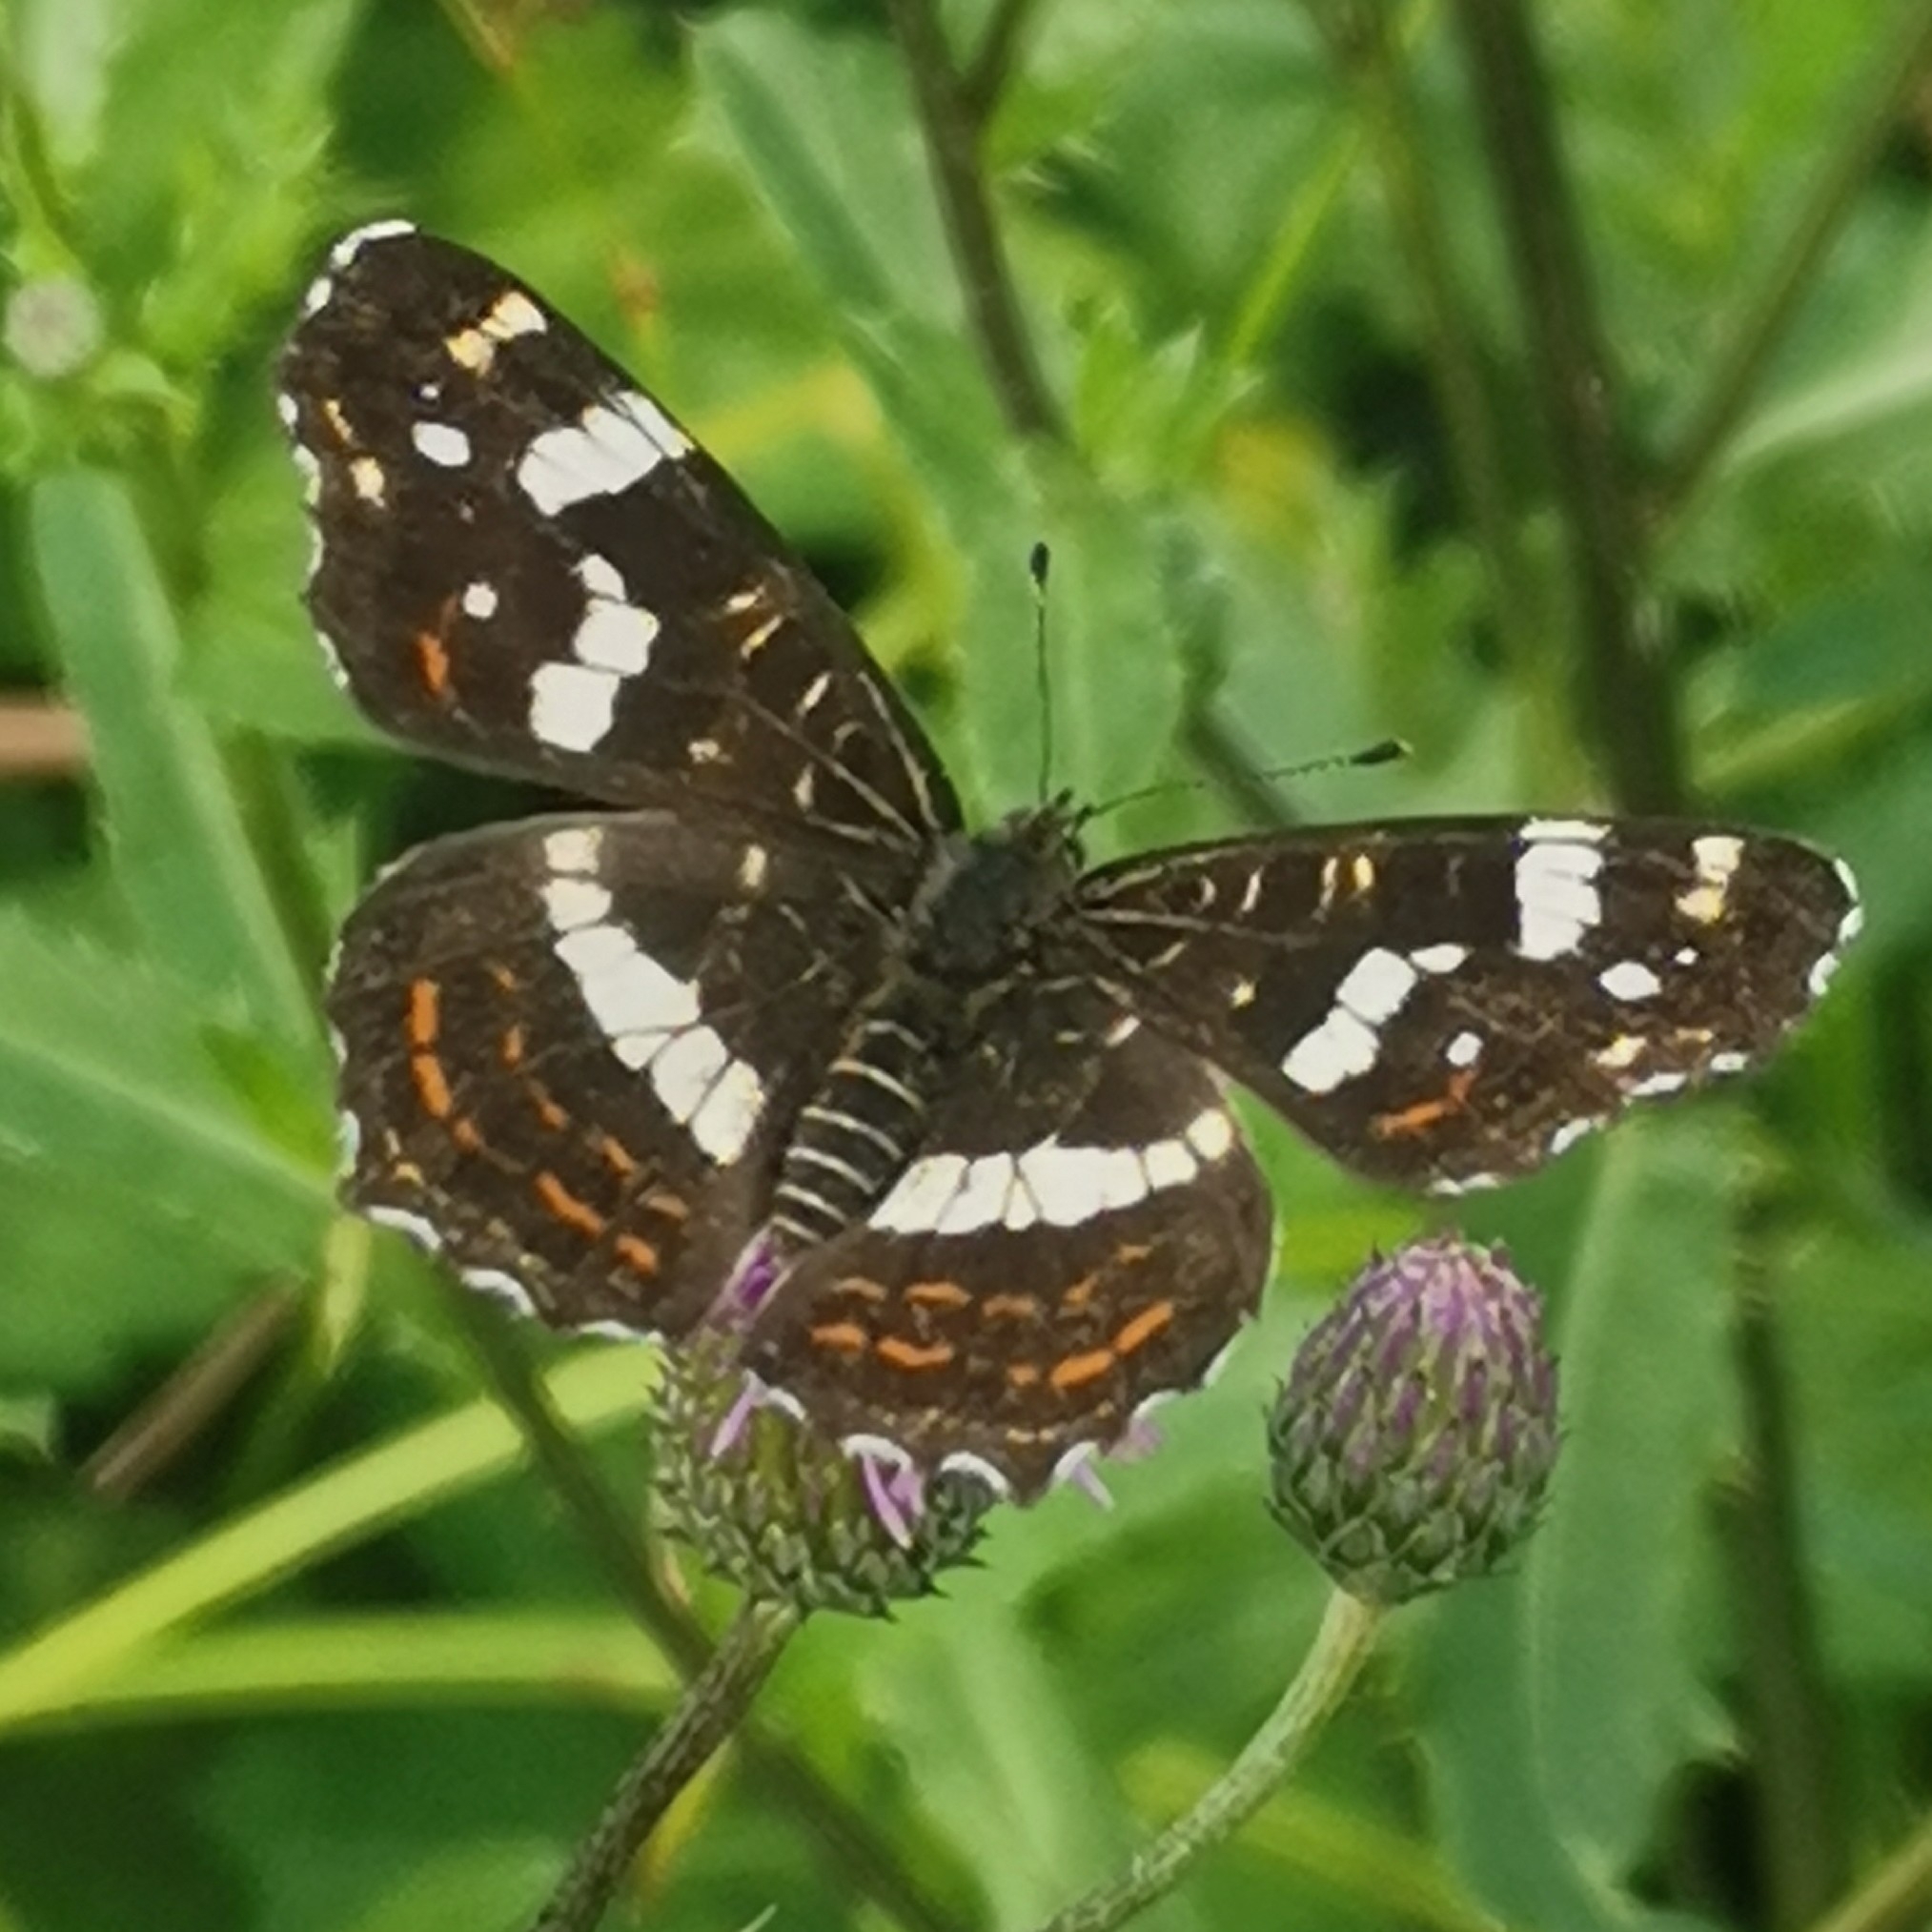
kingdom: Animalia
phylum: Arthropoda
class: Insecta
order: Lepidoptera
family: Nymphalidae
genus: Araschnia
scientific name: Araschnia levana
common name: Map butterfly
